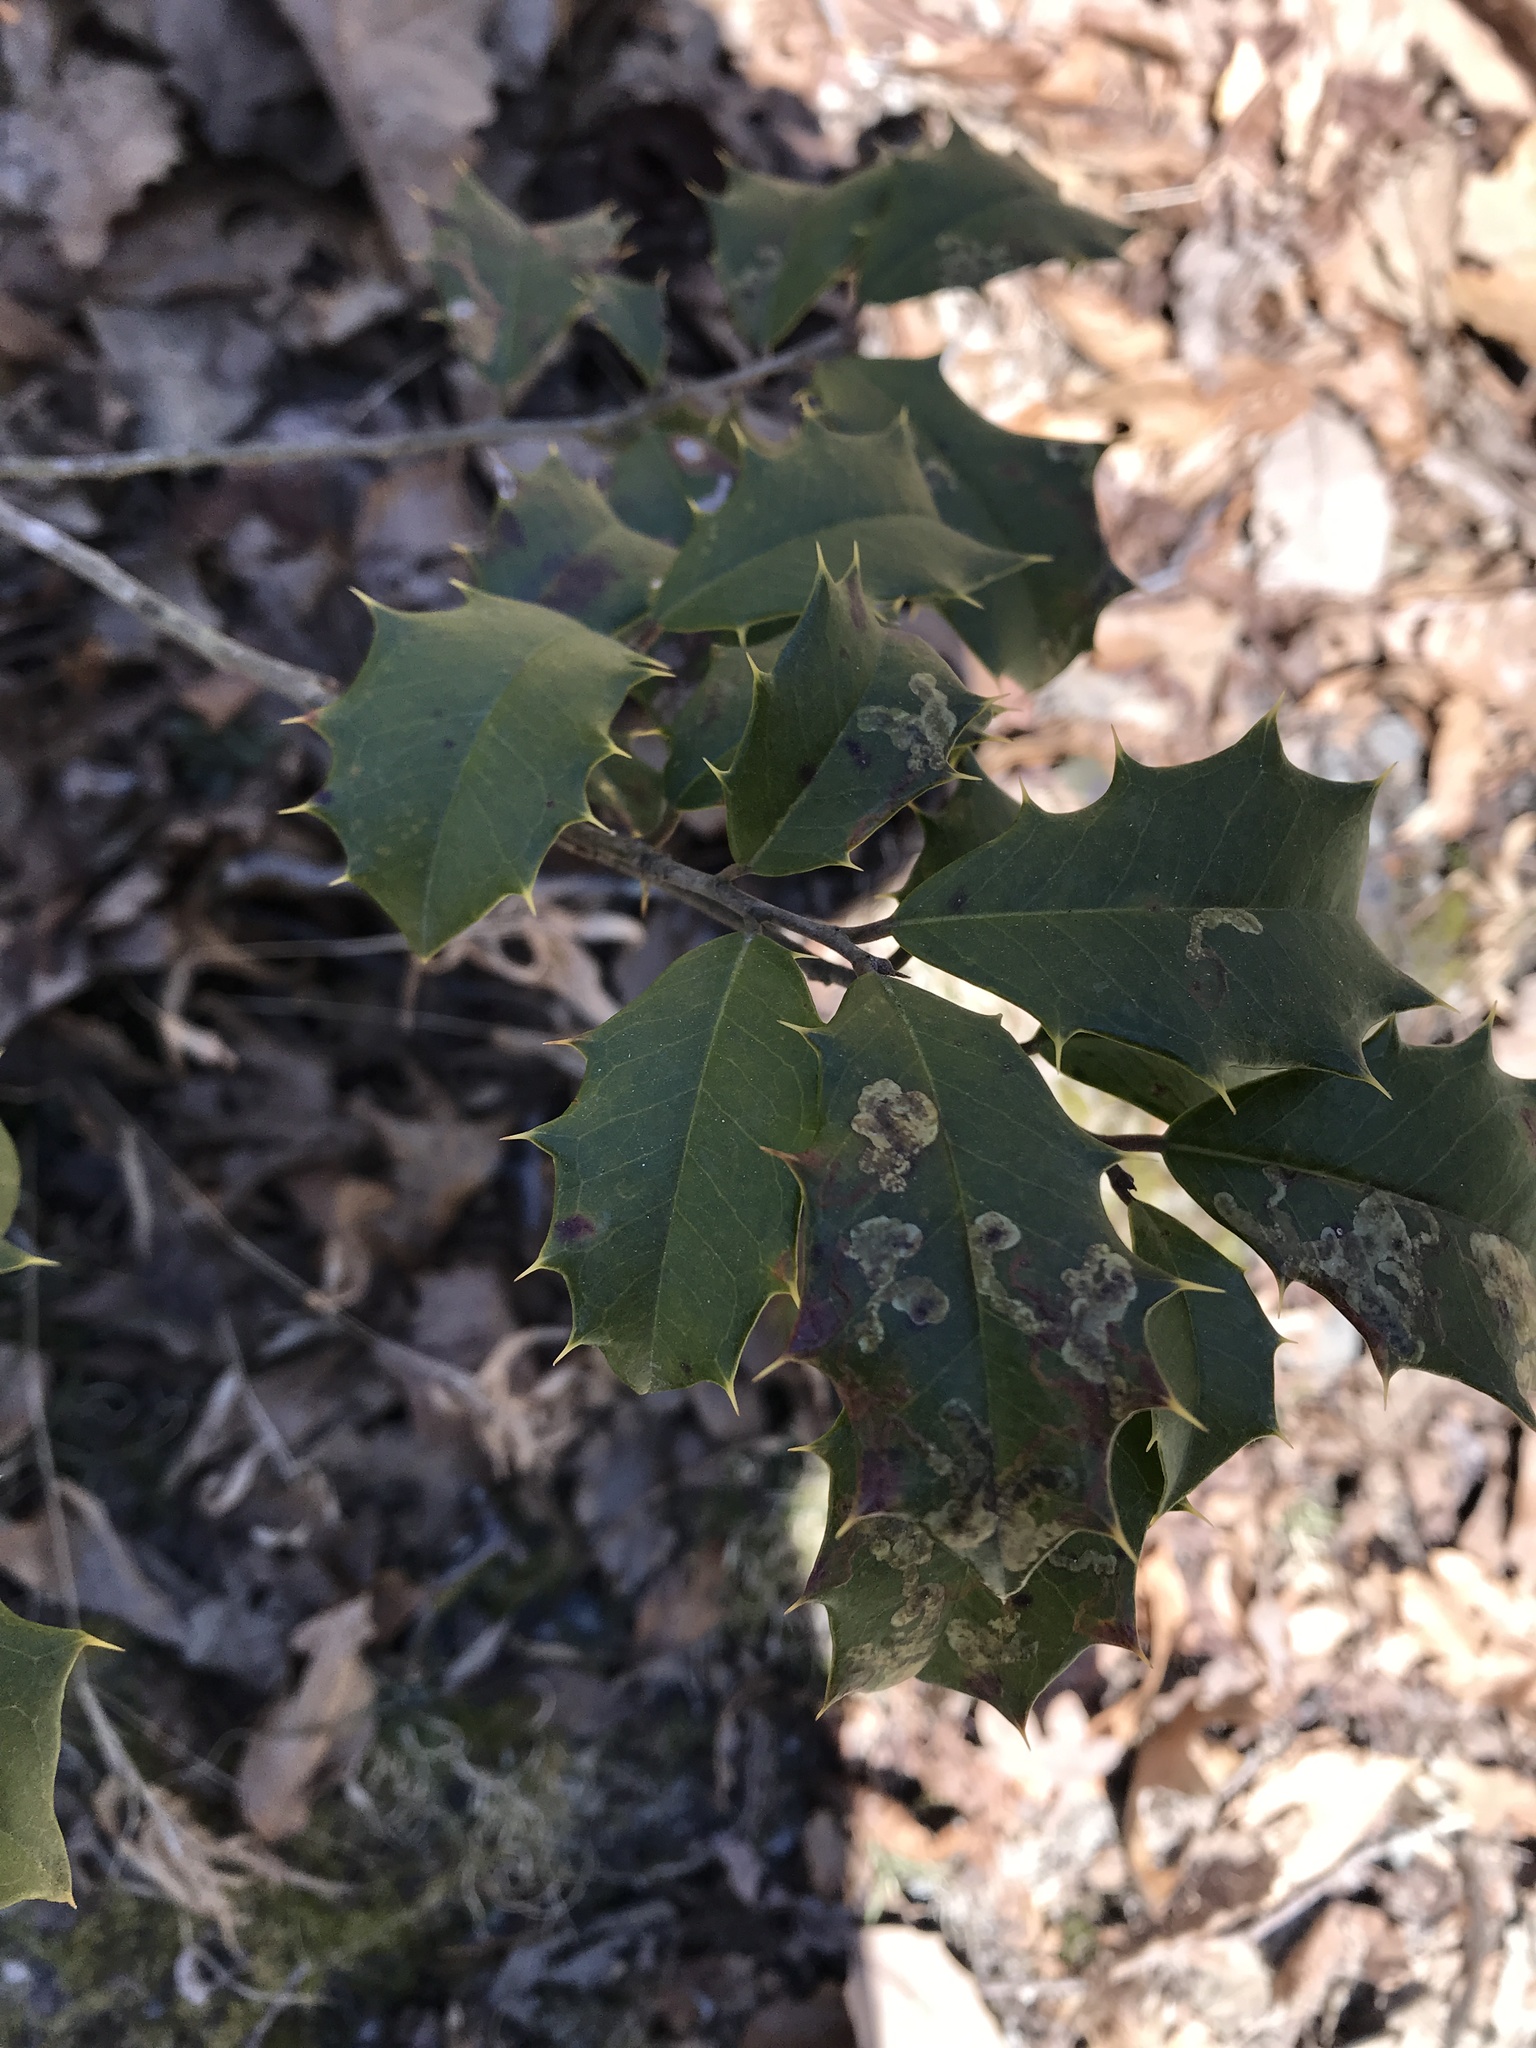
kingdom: Plantae
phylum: Tracheophyta
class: Magnoliopsida
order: Aquifoliales
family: Aquifoliaceae
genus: Ilex
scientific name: Ilex opaca
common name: American holly
